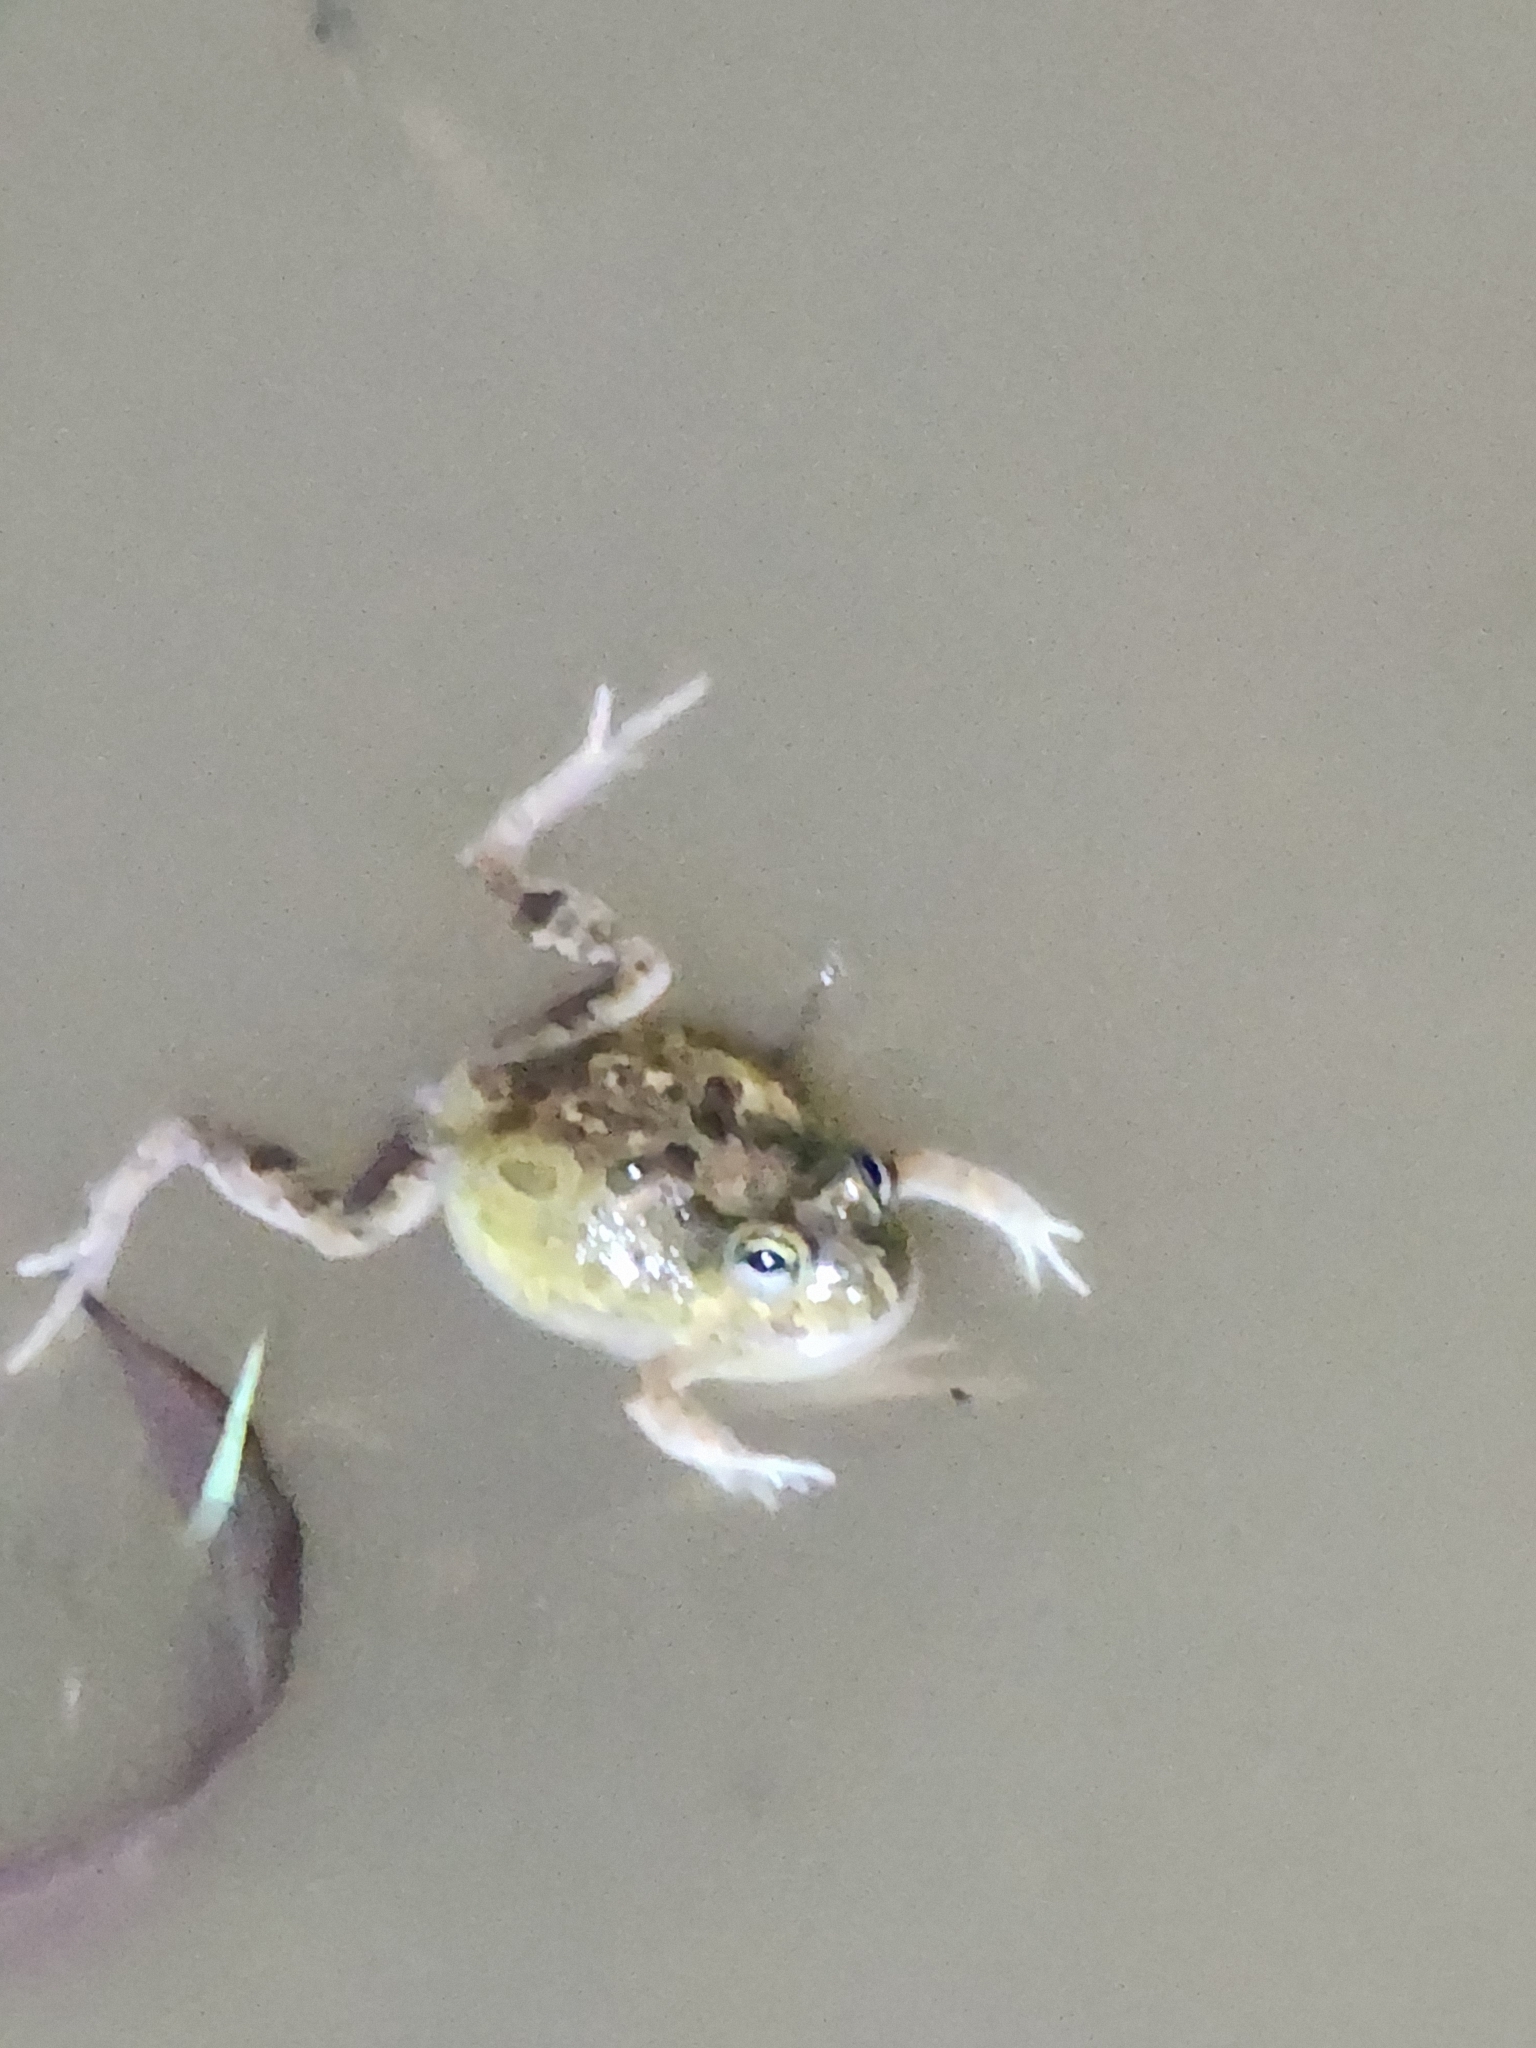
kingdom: Animalia
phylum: Chordata
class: Amphibia
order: Anura
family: Limnodynastidae
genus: Platyplectrum
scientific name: Platyplectrum ornatum
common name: Ornate burrowing frog
